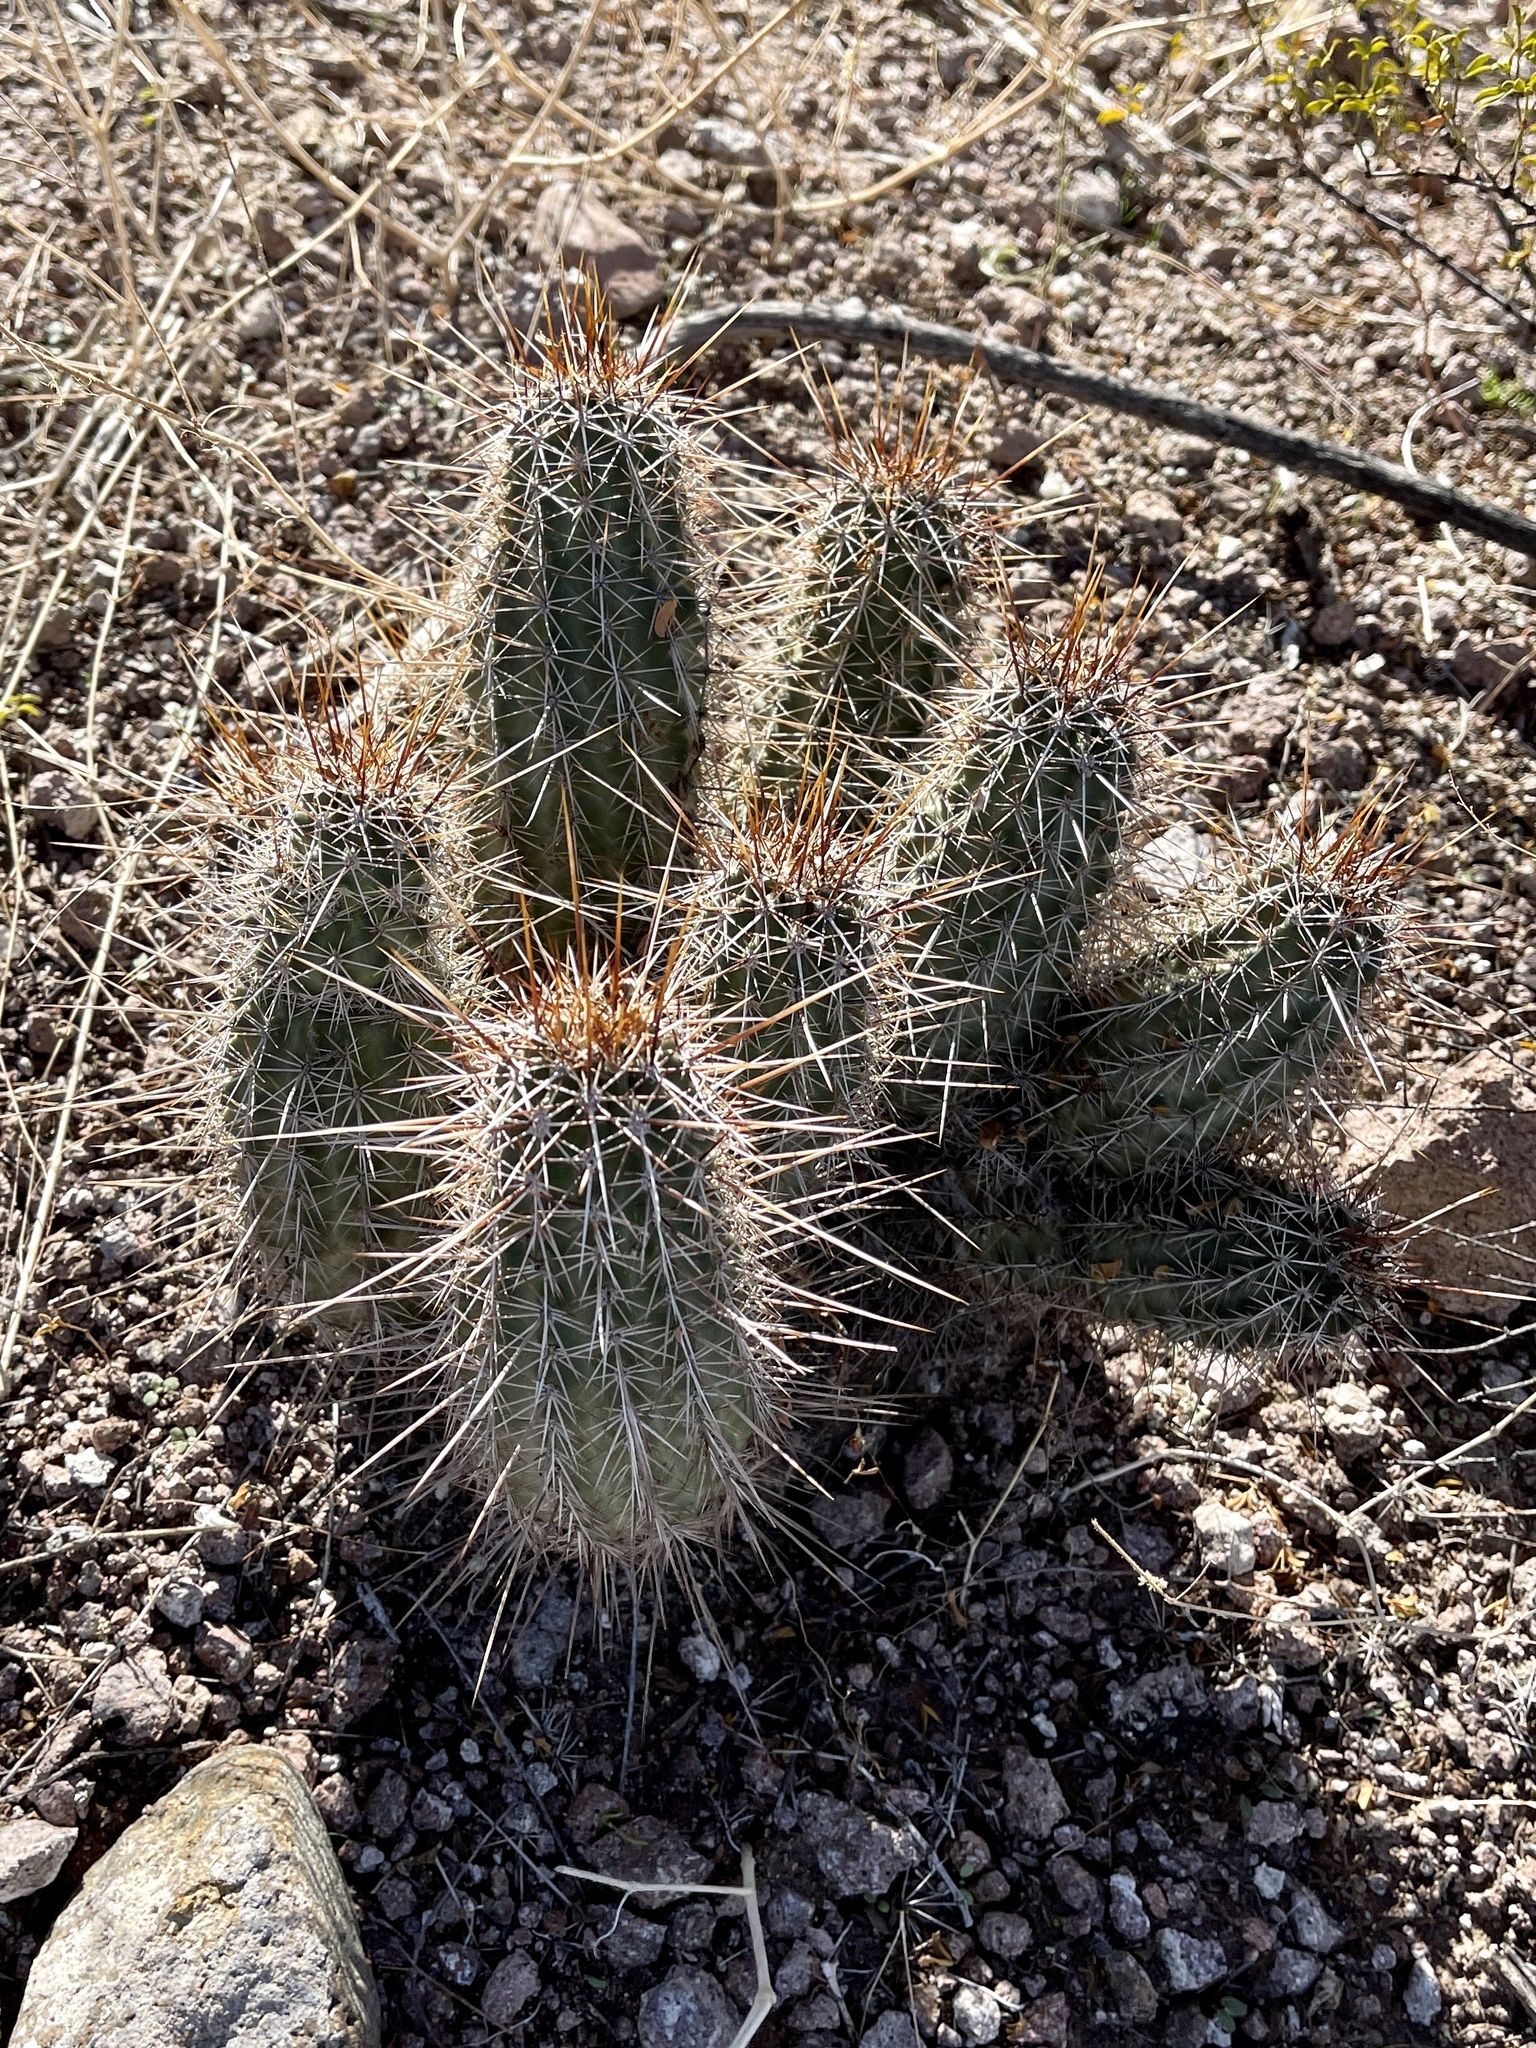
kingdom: Plantae
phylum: Tracheophyta
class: Magnoliopsida
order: Caryophyllales
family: Cactaceae
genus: Echinocereus
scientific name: Echinocereus fasciculatus
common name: Bundle hedgehog
